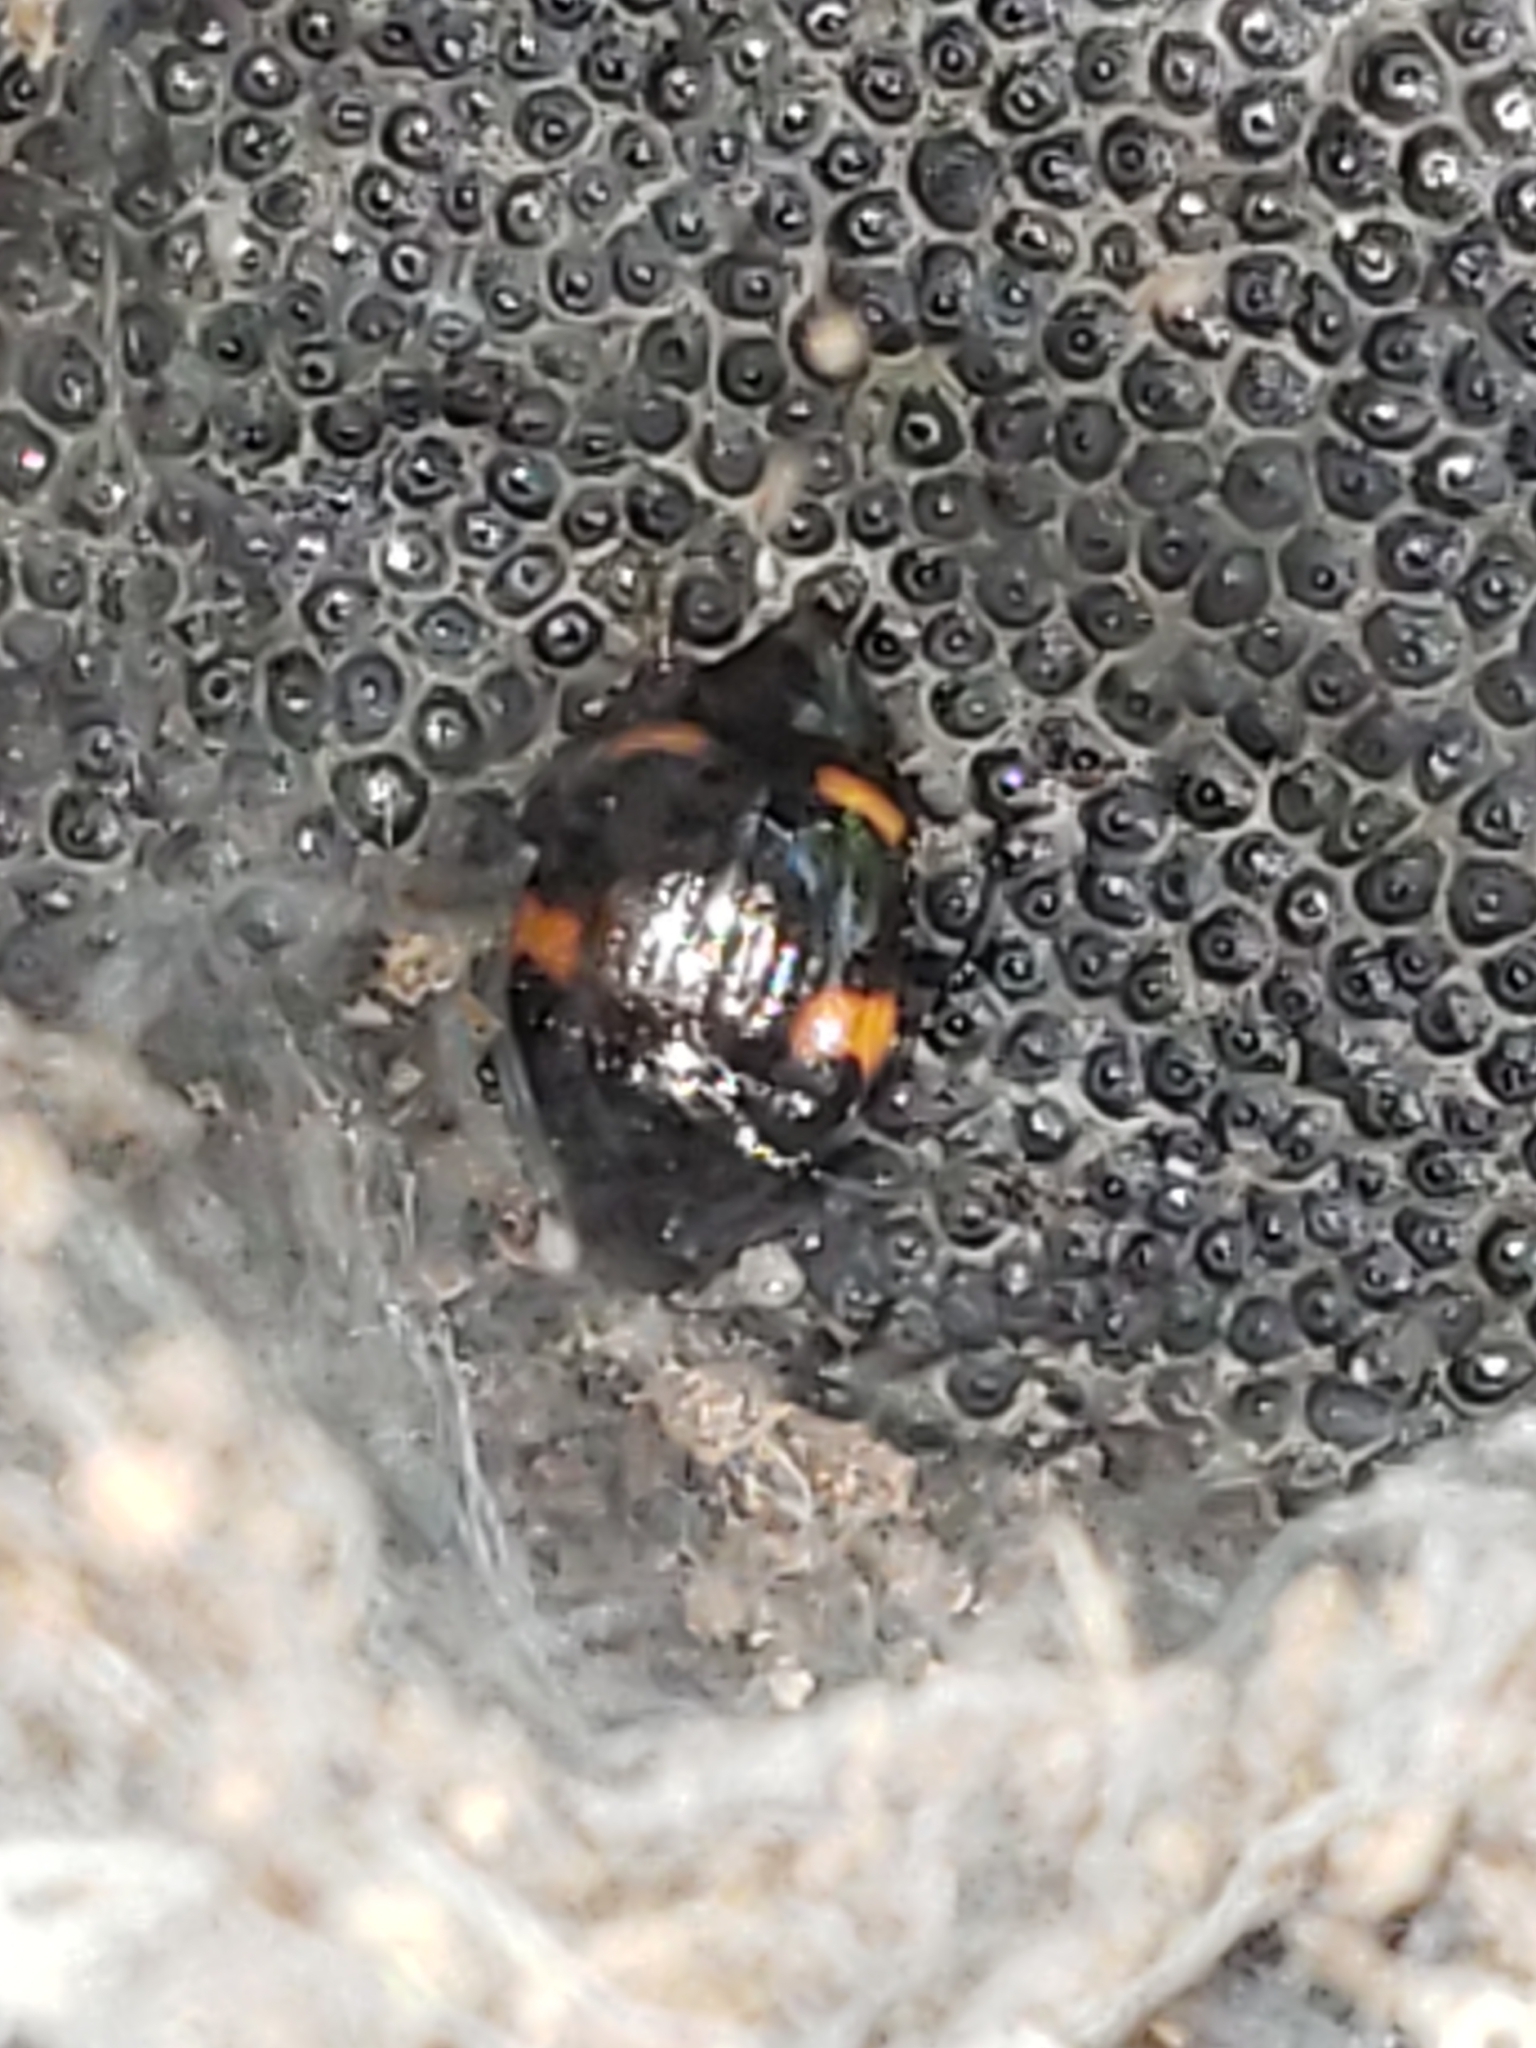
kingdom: Animalia
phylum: Arthropoda
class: Insecta
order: Coleoptera
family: Staphylinidae
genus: Scaphidium
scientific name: Scaphidium quadriguttatum
